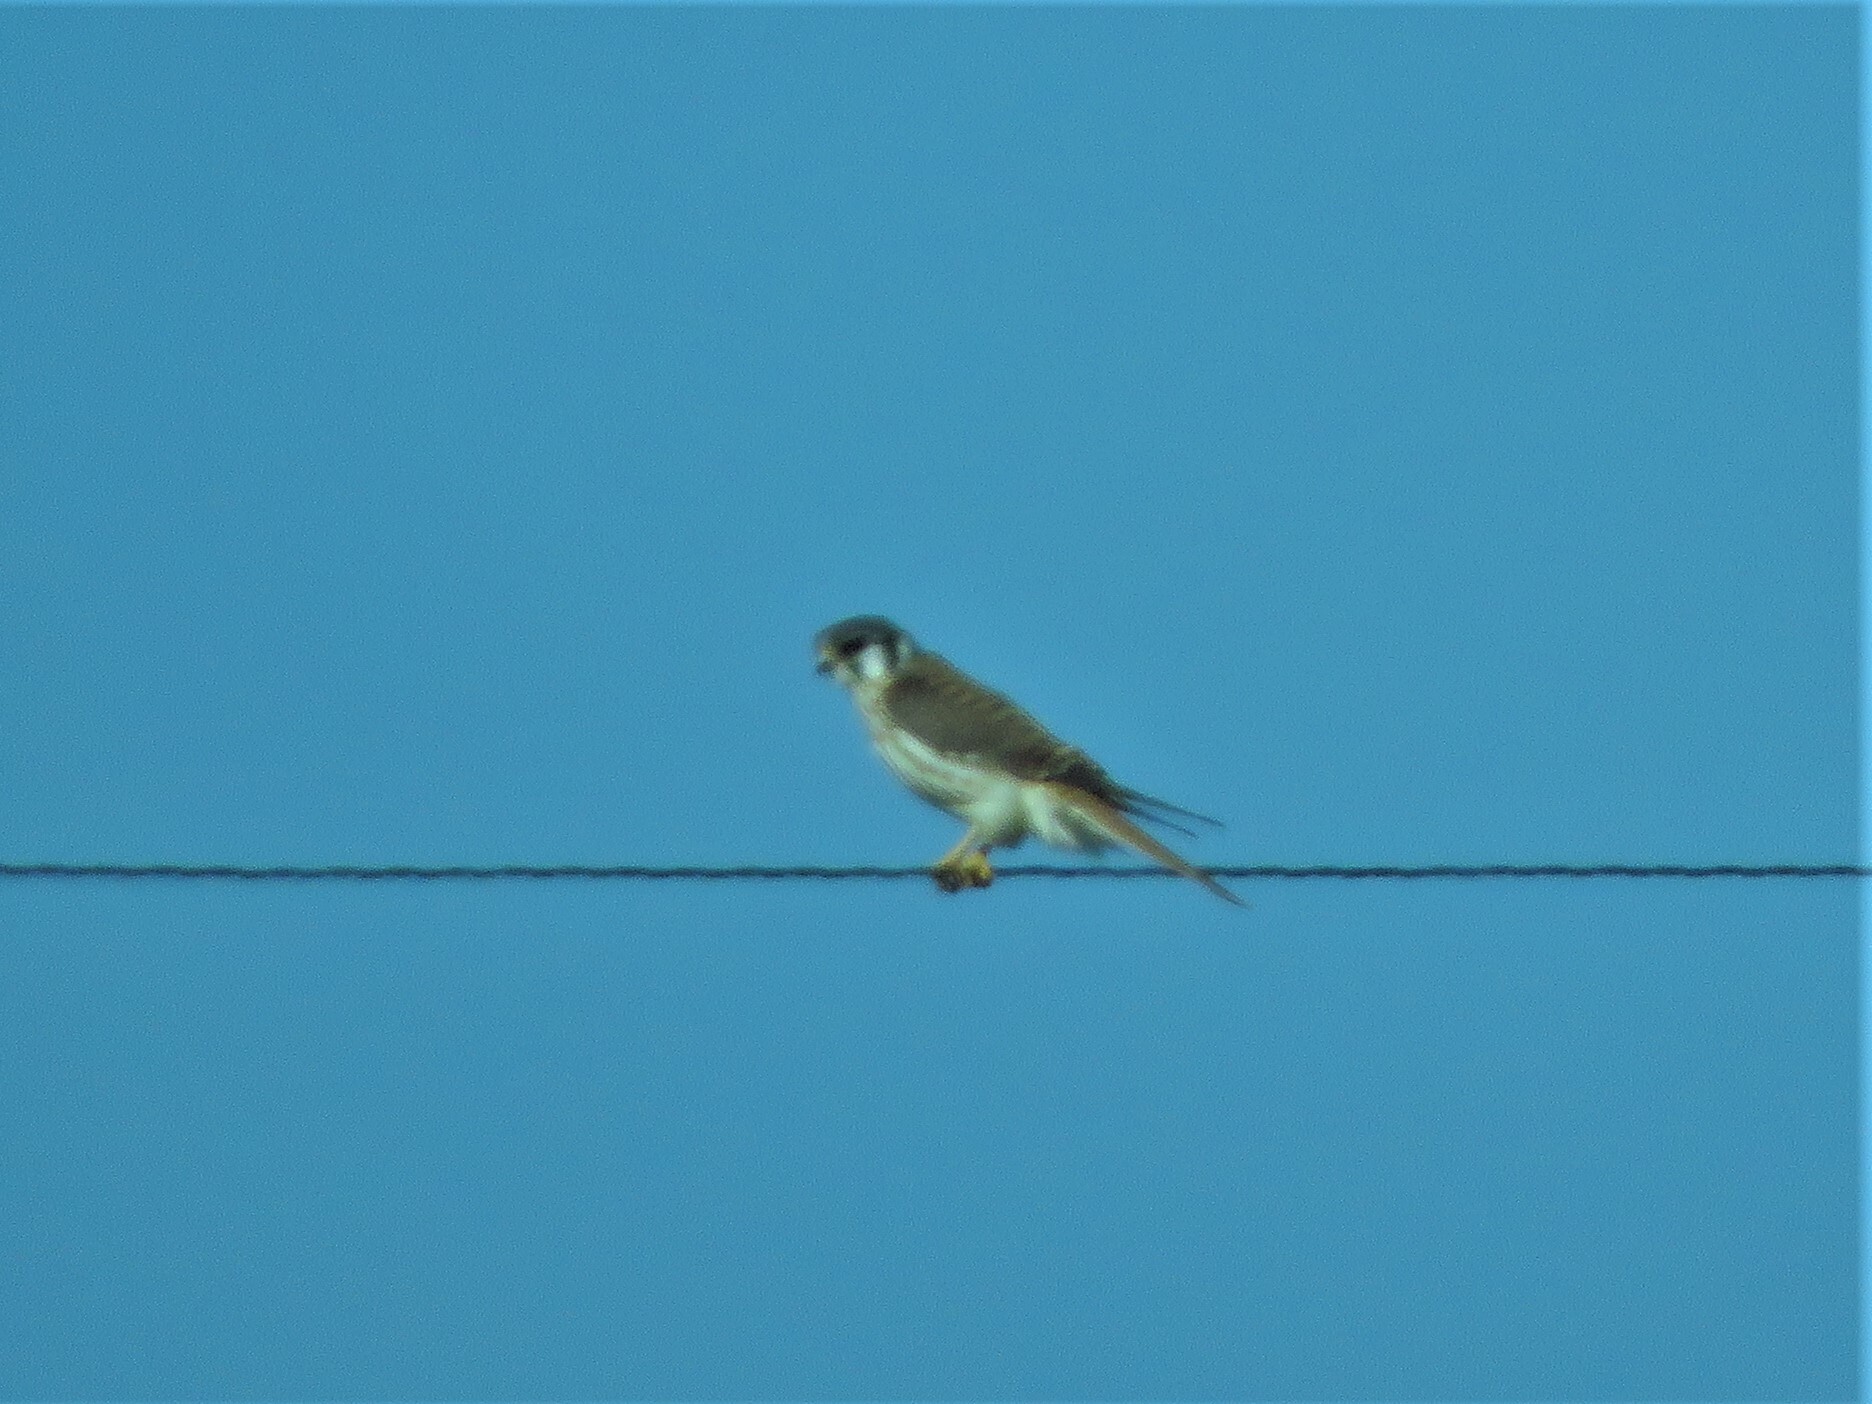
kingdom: Animalia
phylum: Chordata
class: Aves
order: Falconiformes
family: Falconidae
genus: Falco
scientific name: Falco sparverius
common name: American kestrel
